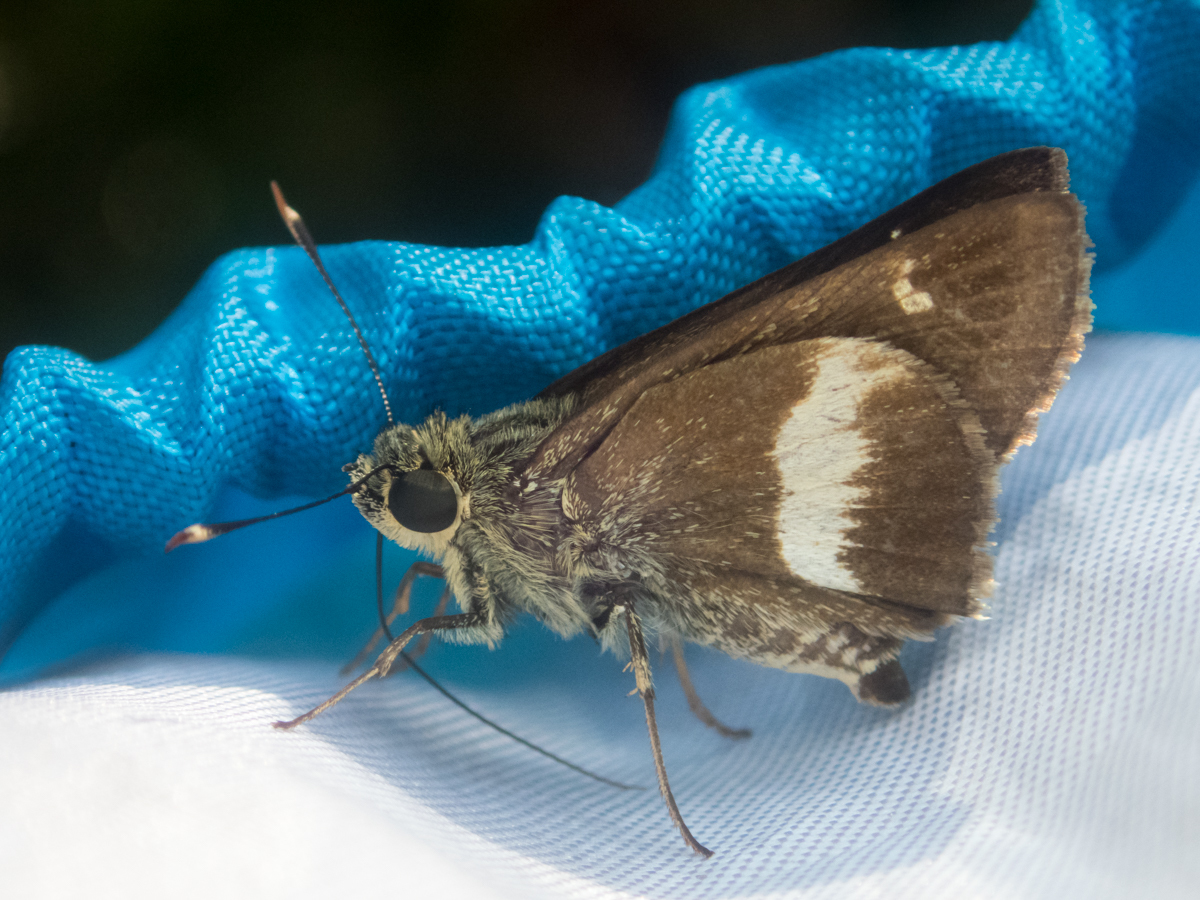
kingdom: Animalia
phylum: Arthropoda
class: Insecta
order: Lepidoptera
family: Hesperiidae
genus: Halpe
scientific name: Halpe zola
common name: Long-banded ace
